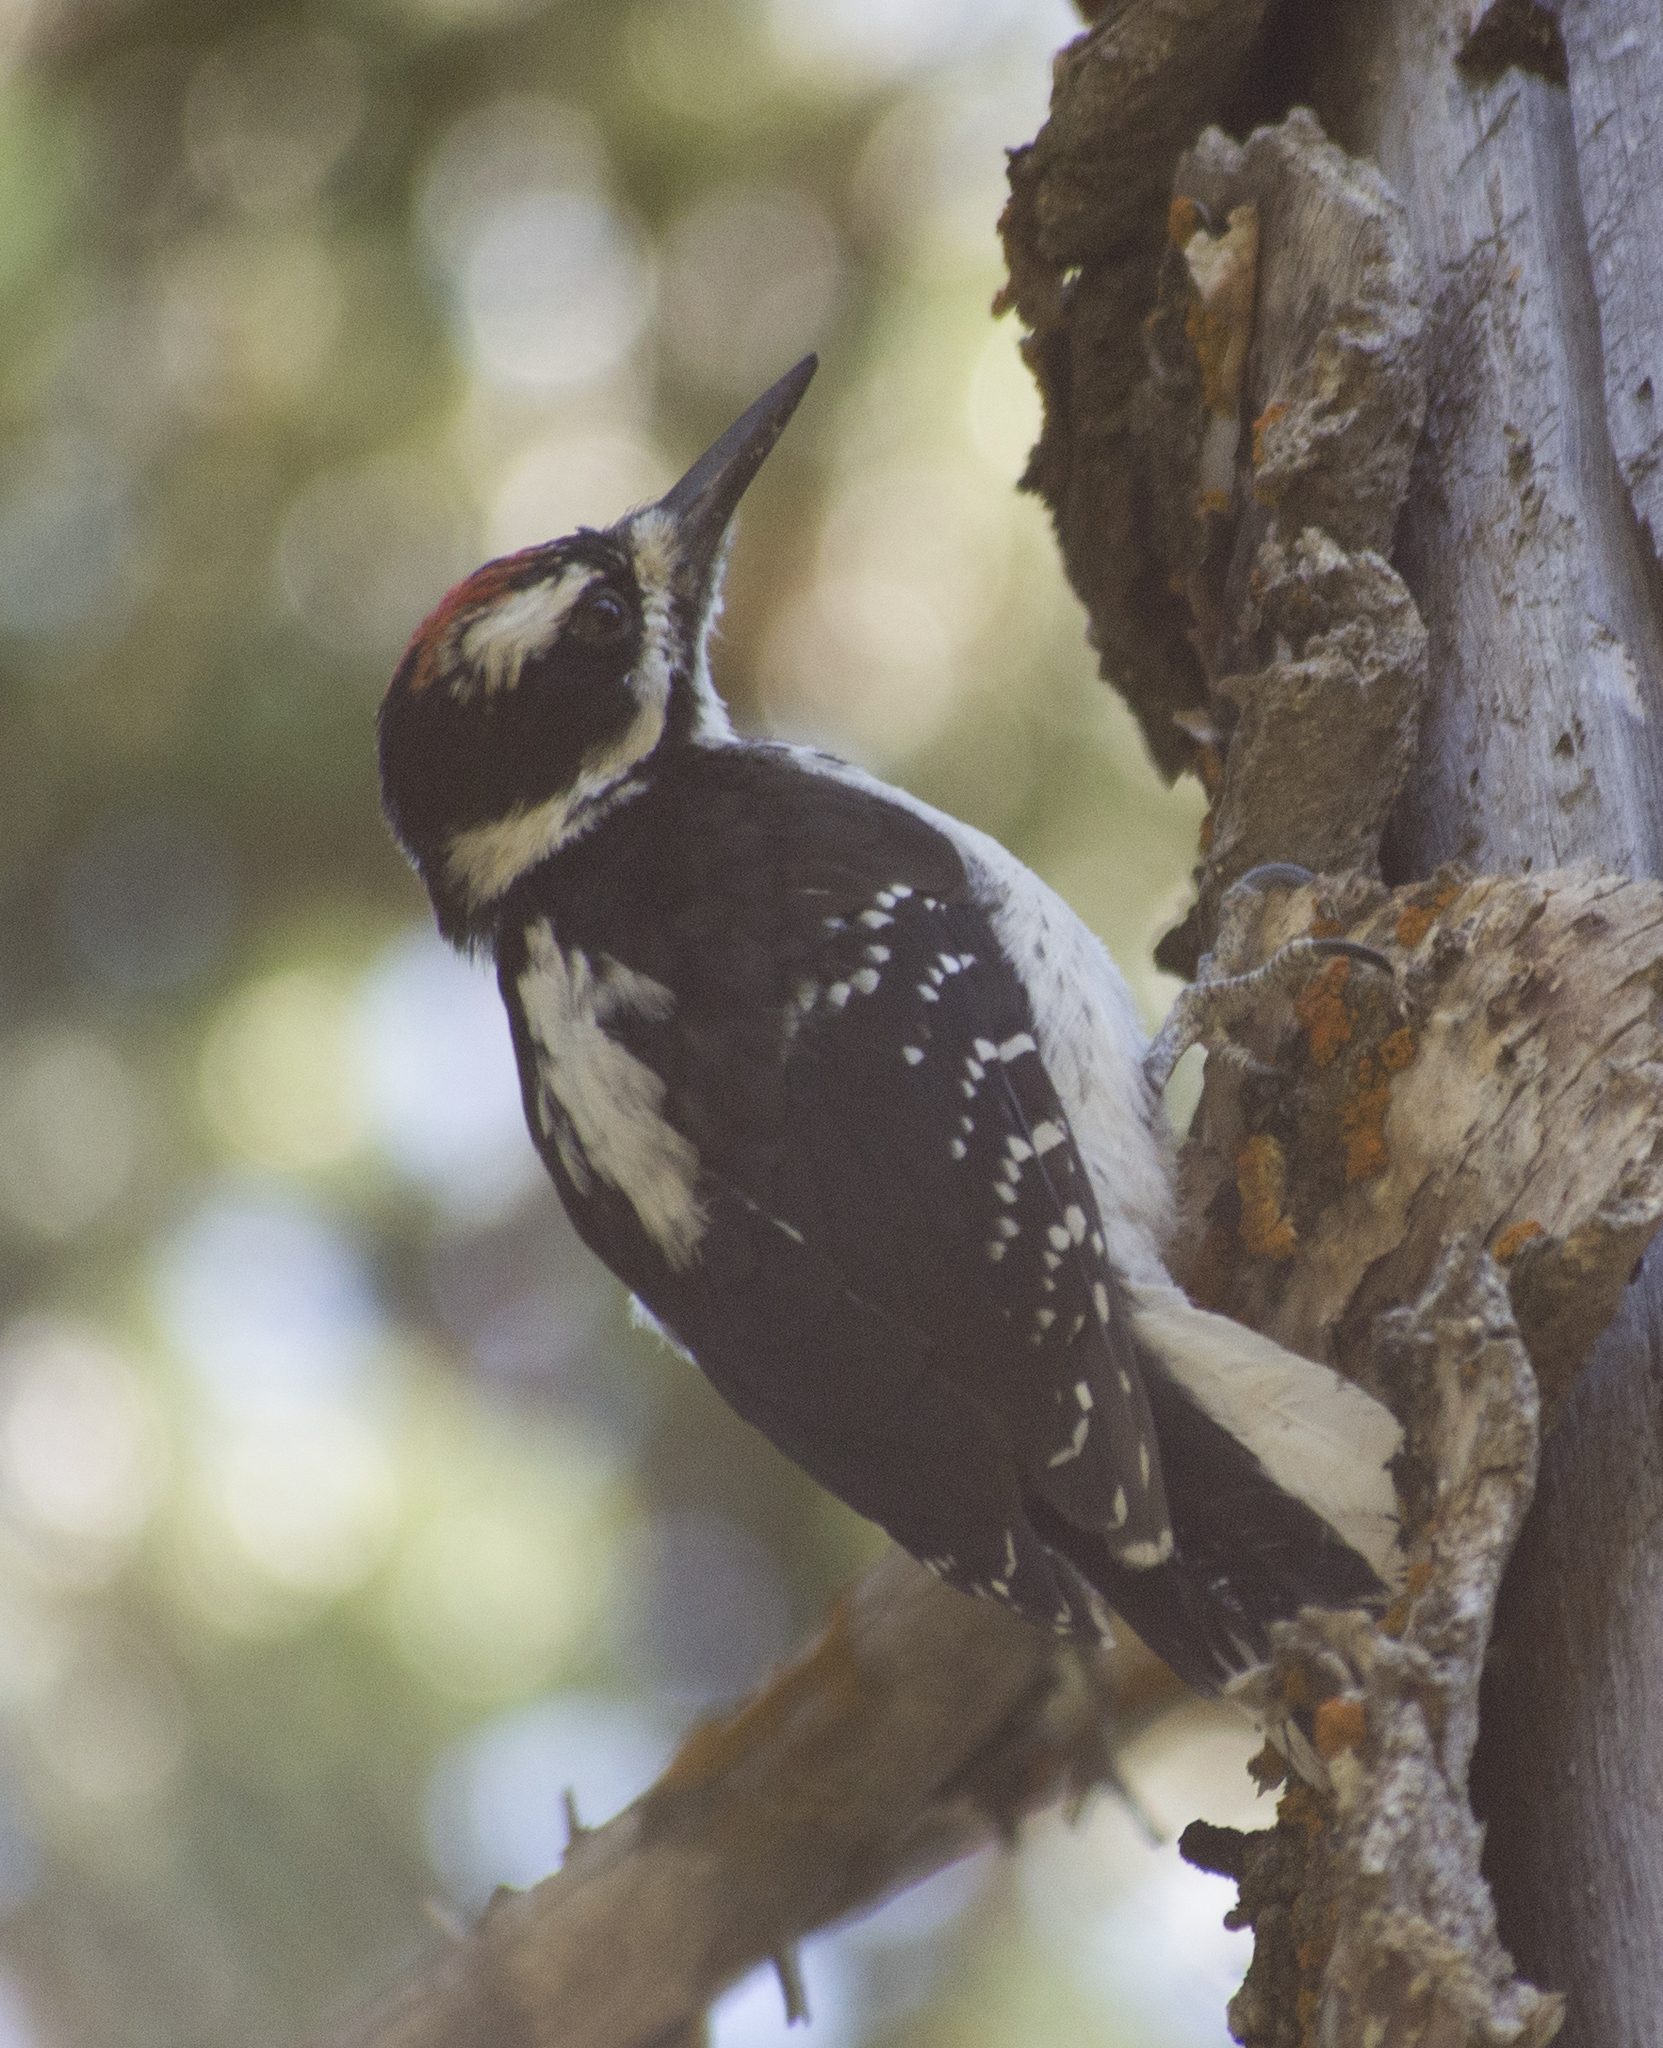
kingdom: Animalia
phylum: Chordata
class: Aves
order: Piciformes
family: Picidae
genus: Leuconotopicus
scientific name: Leuconotopicus villosus
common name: Hairy woodpecker
